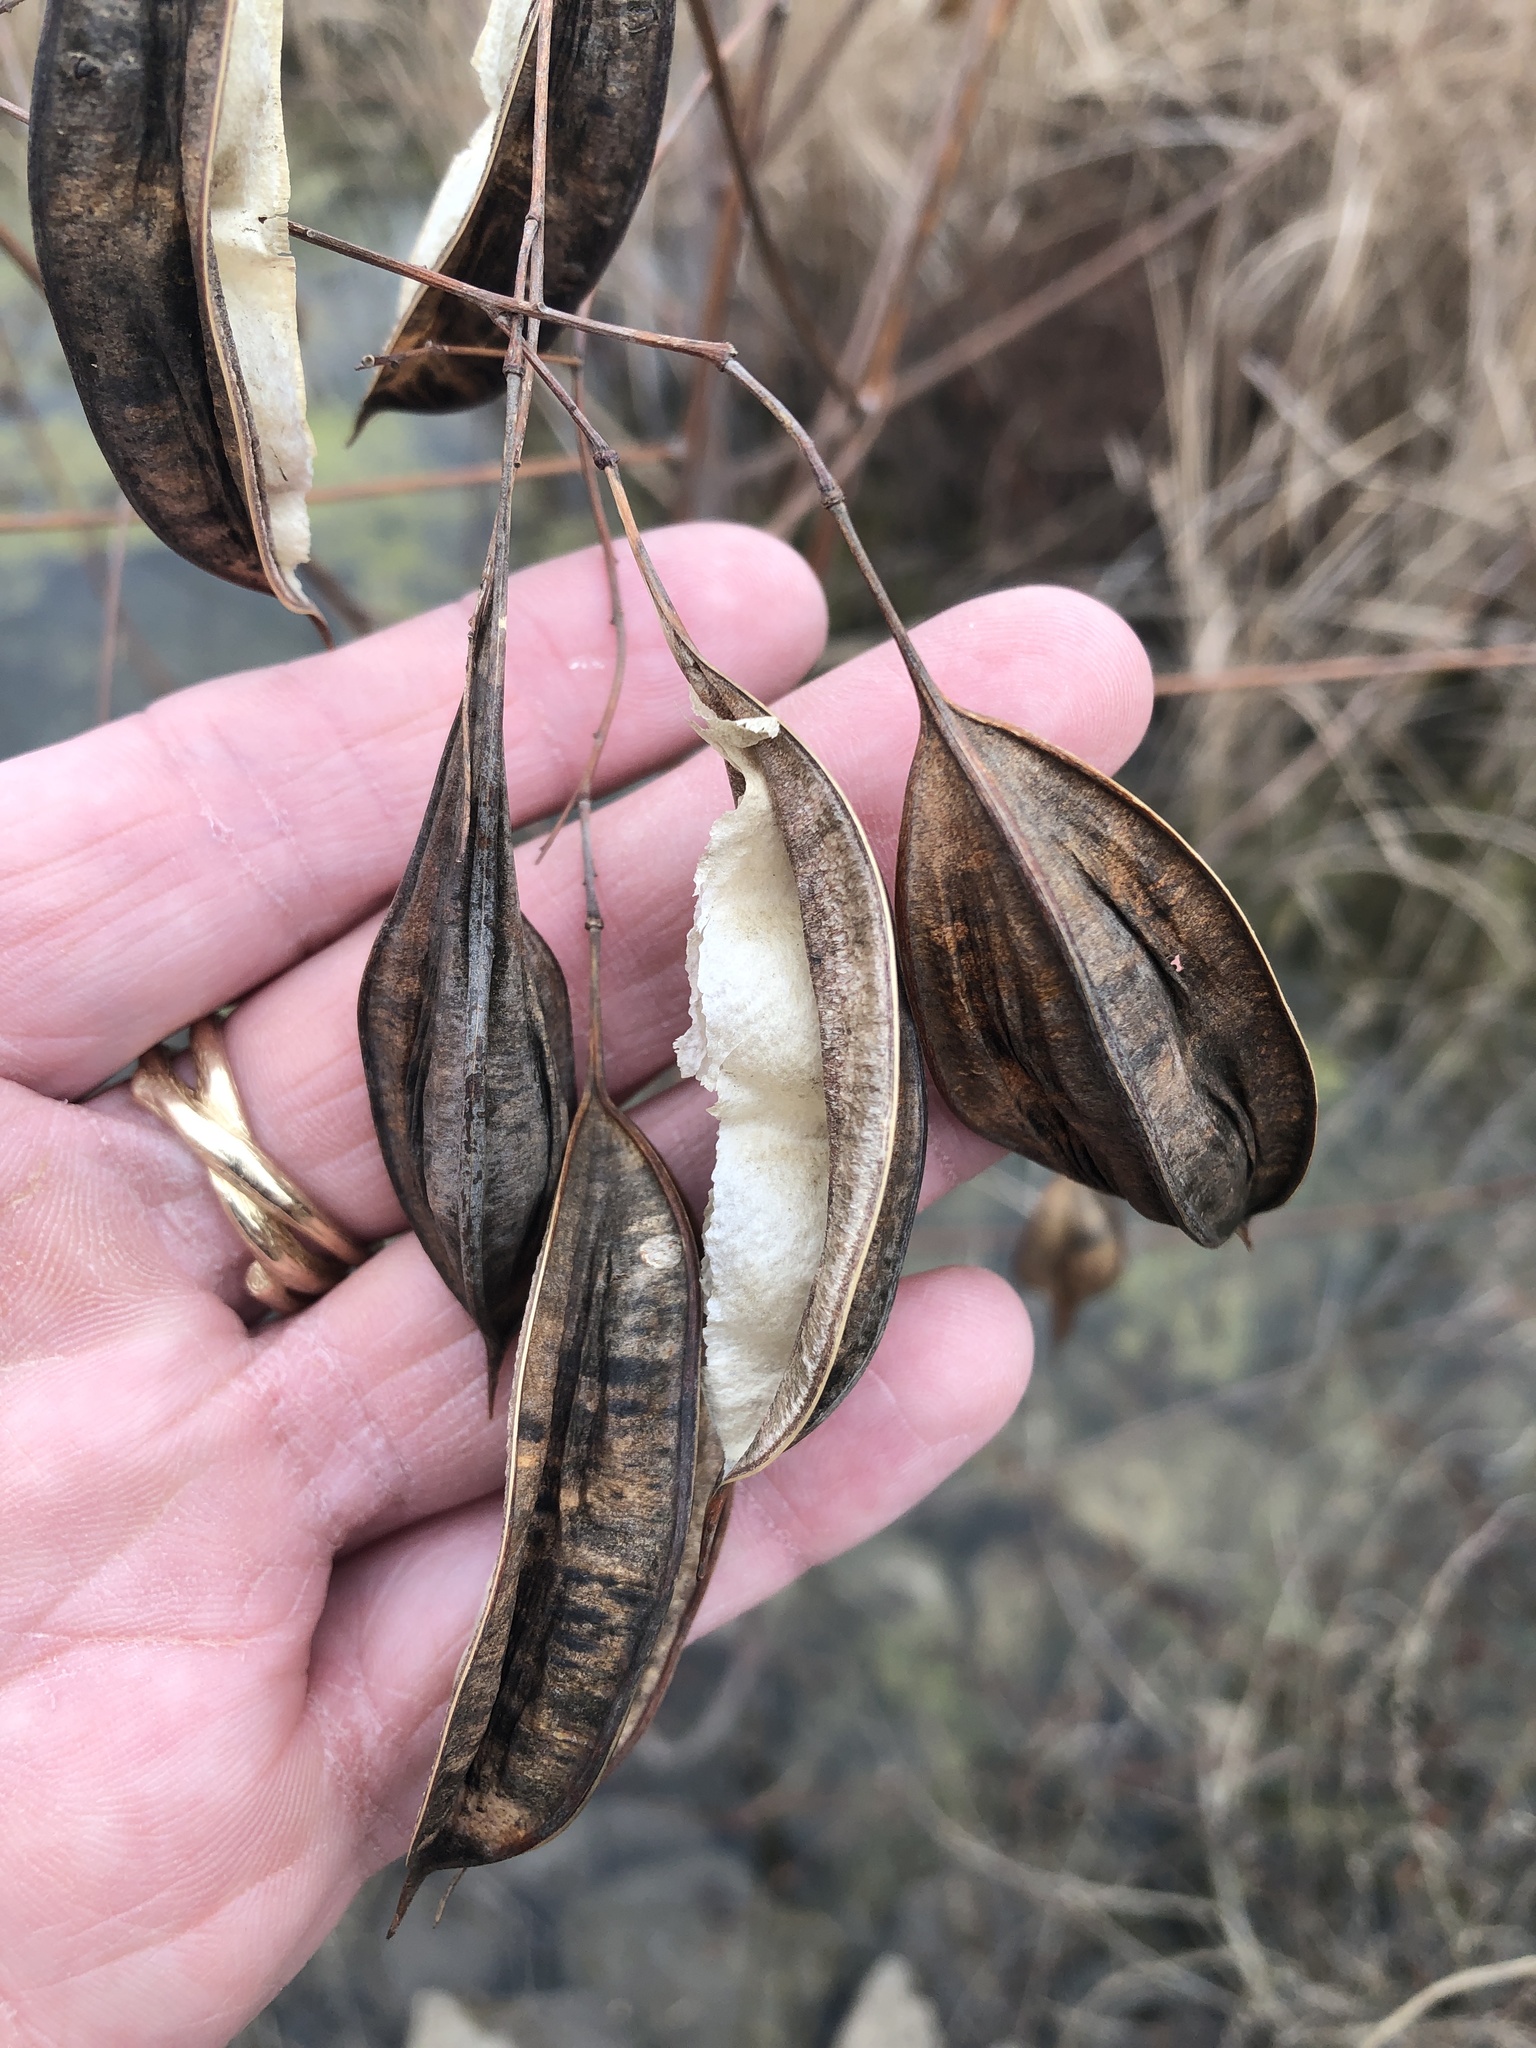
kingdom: Plantae
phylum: Tracheophyta
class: Magnoliopsida
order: Fabales
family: Fabaceae
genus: Sesbania
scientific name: Sesbania vesicaria
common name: Bagpod
